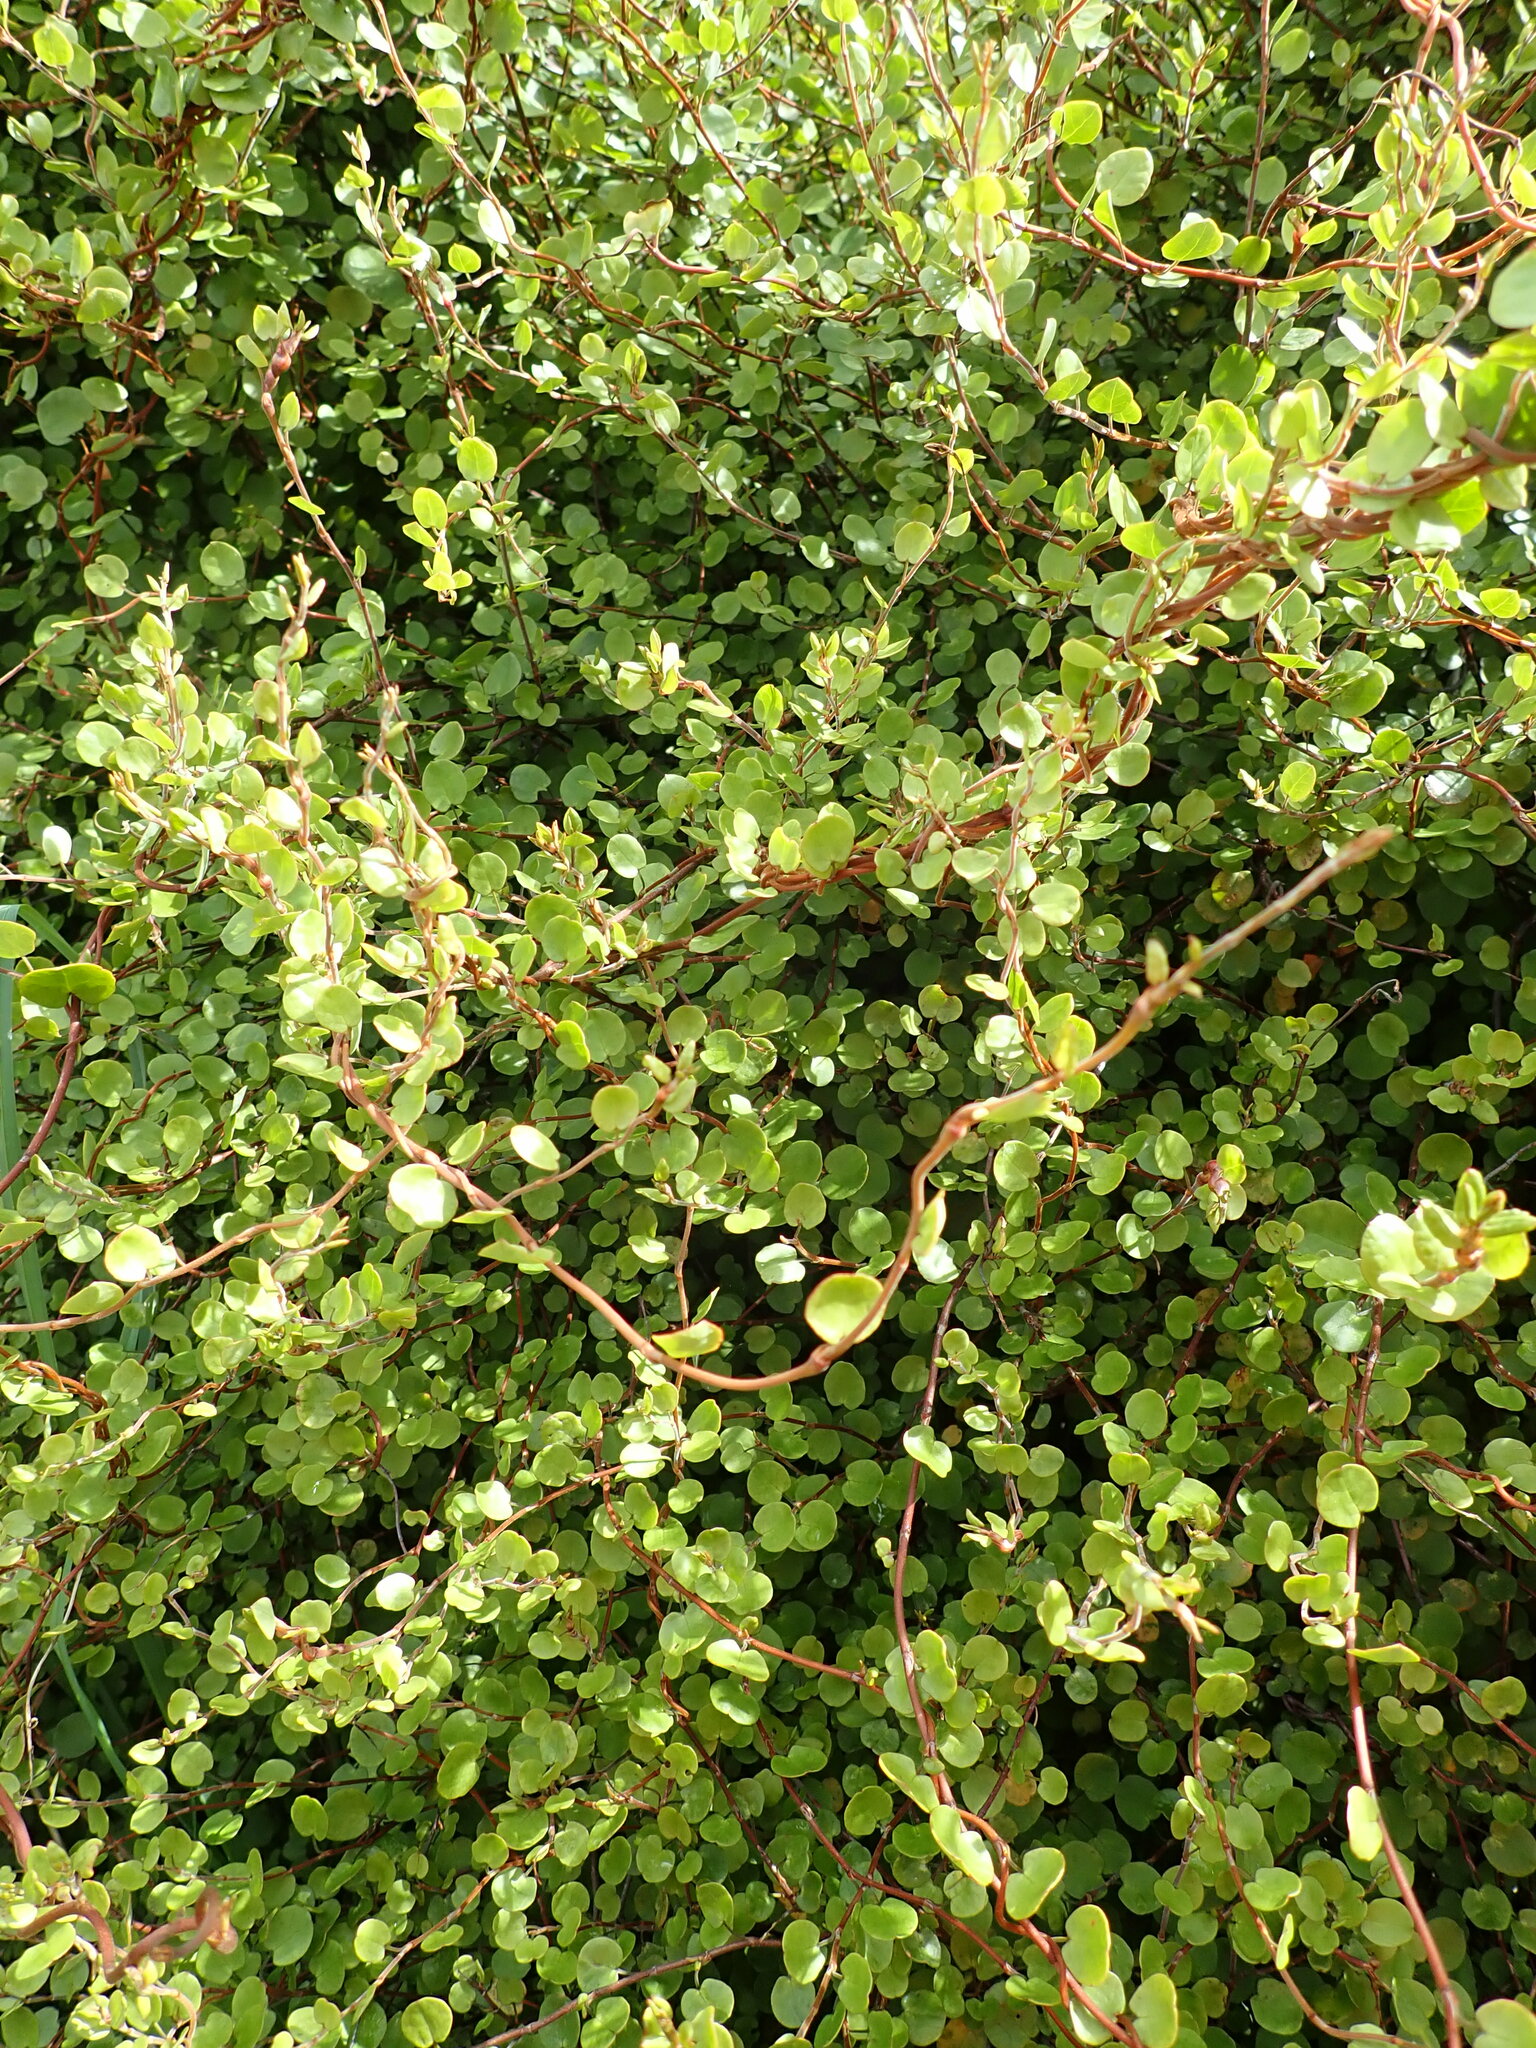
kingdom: Plantae
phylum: Tracheophyta
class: Magnoliopsida
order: Caryophyllales
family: Polygonaceae
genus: Muehlenbeckia
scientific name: Muehlenbeckia complexa
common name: Wireplant
